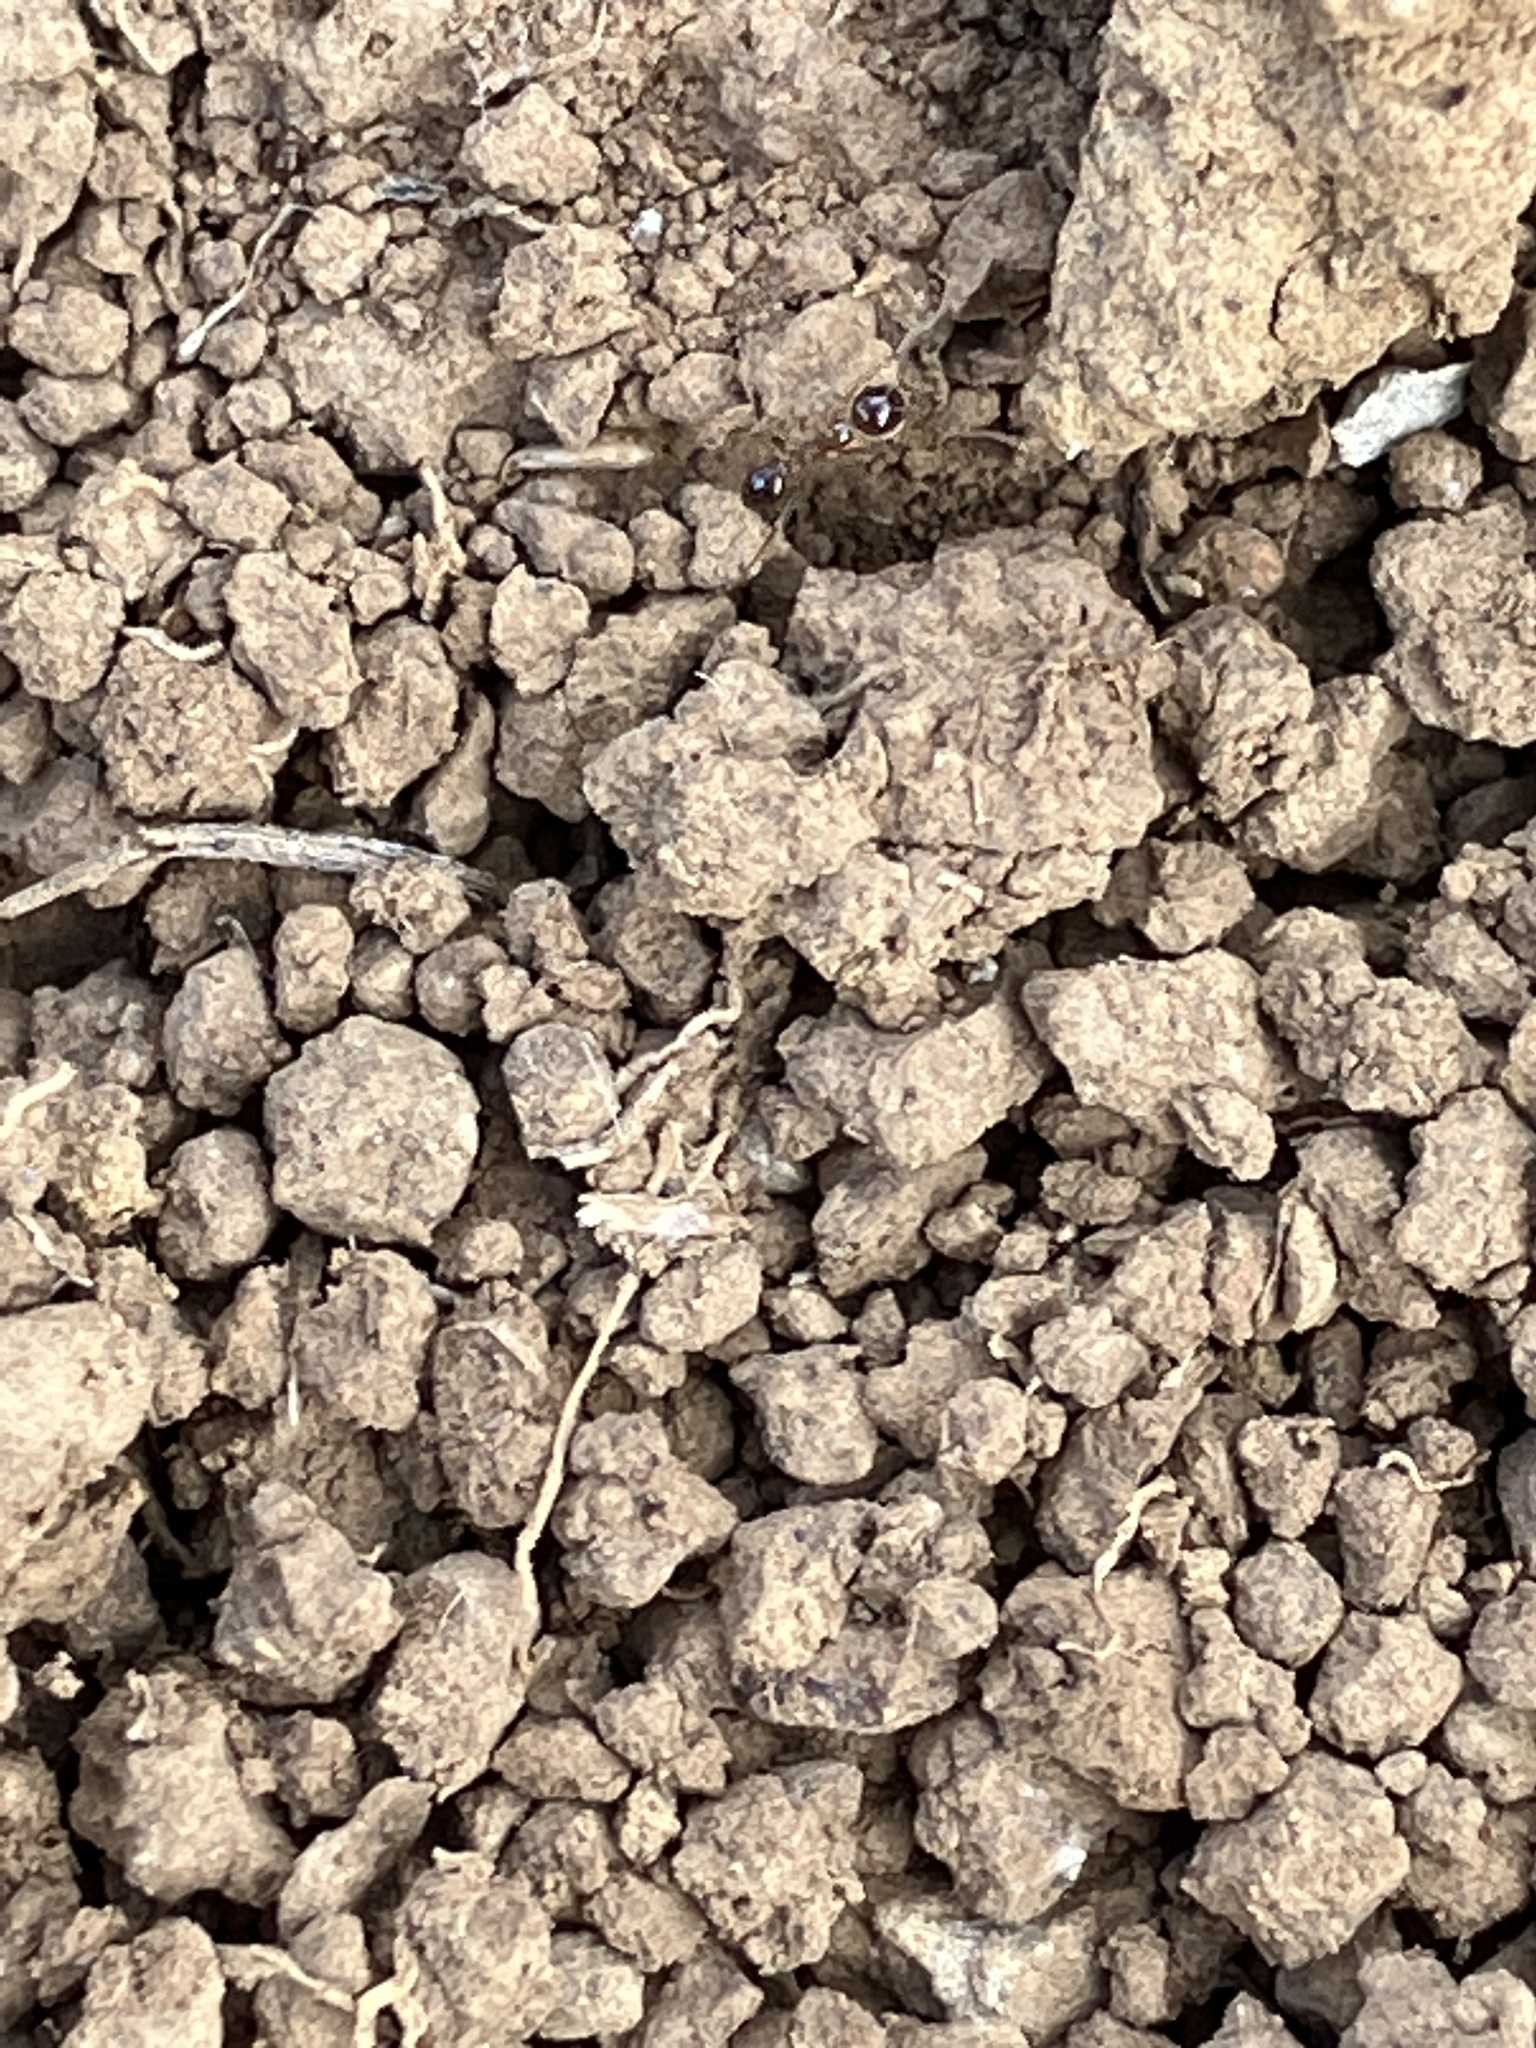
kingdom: Animalia
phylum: Arthropoda
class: Insecta
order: Hymenoptera
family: Formicidae
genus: Pheidole
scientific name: Pheidole megacephala
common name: Bigheaded ant
